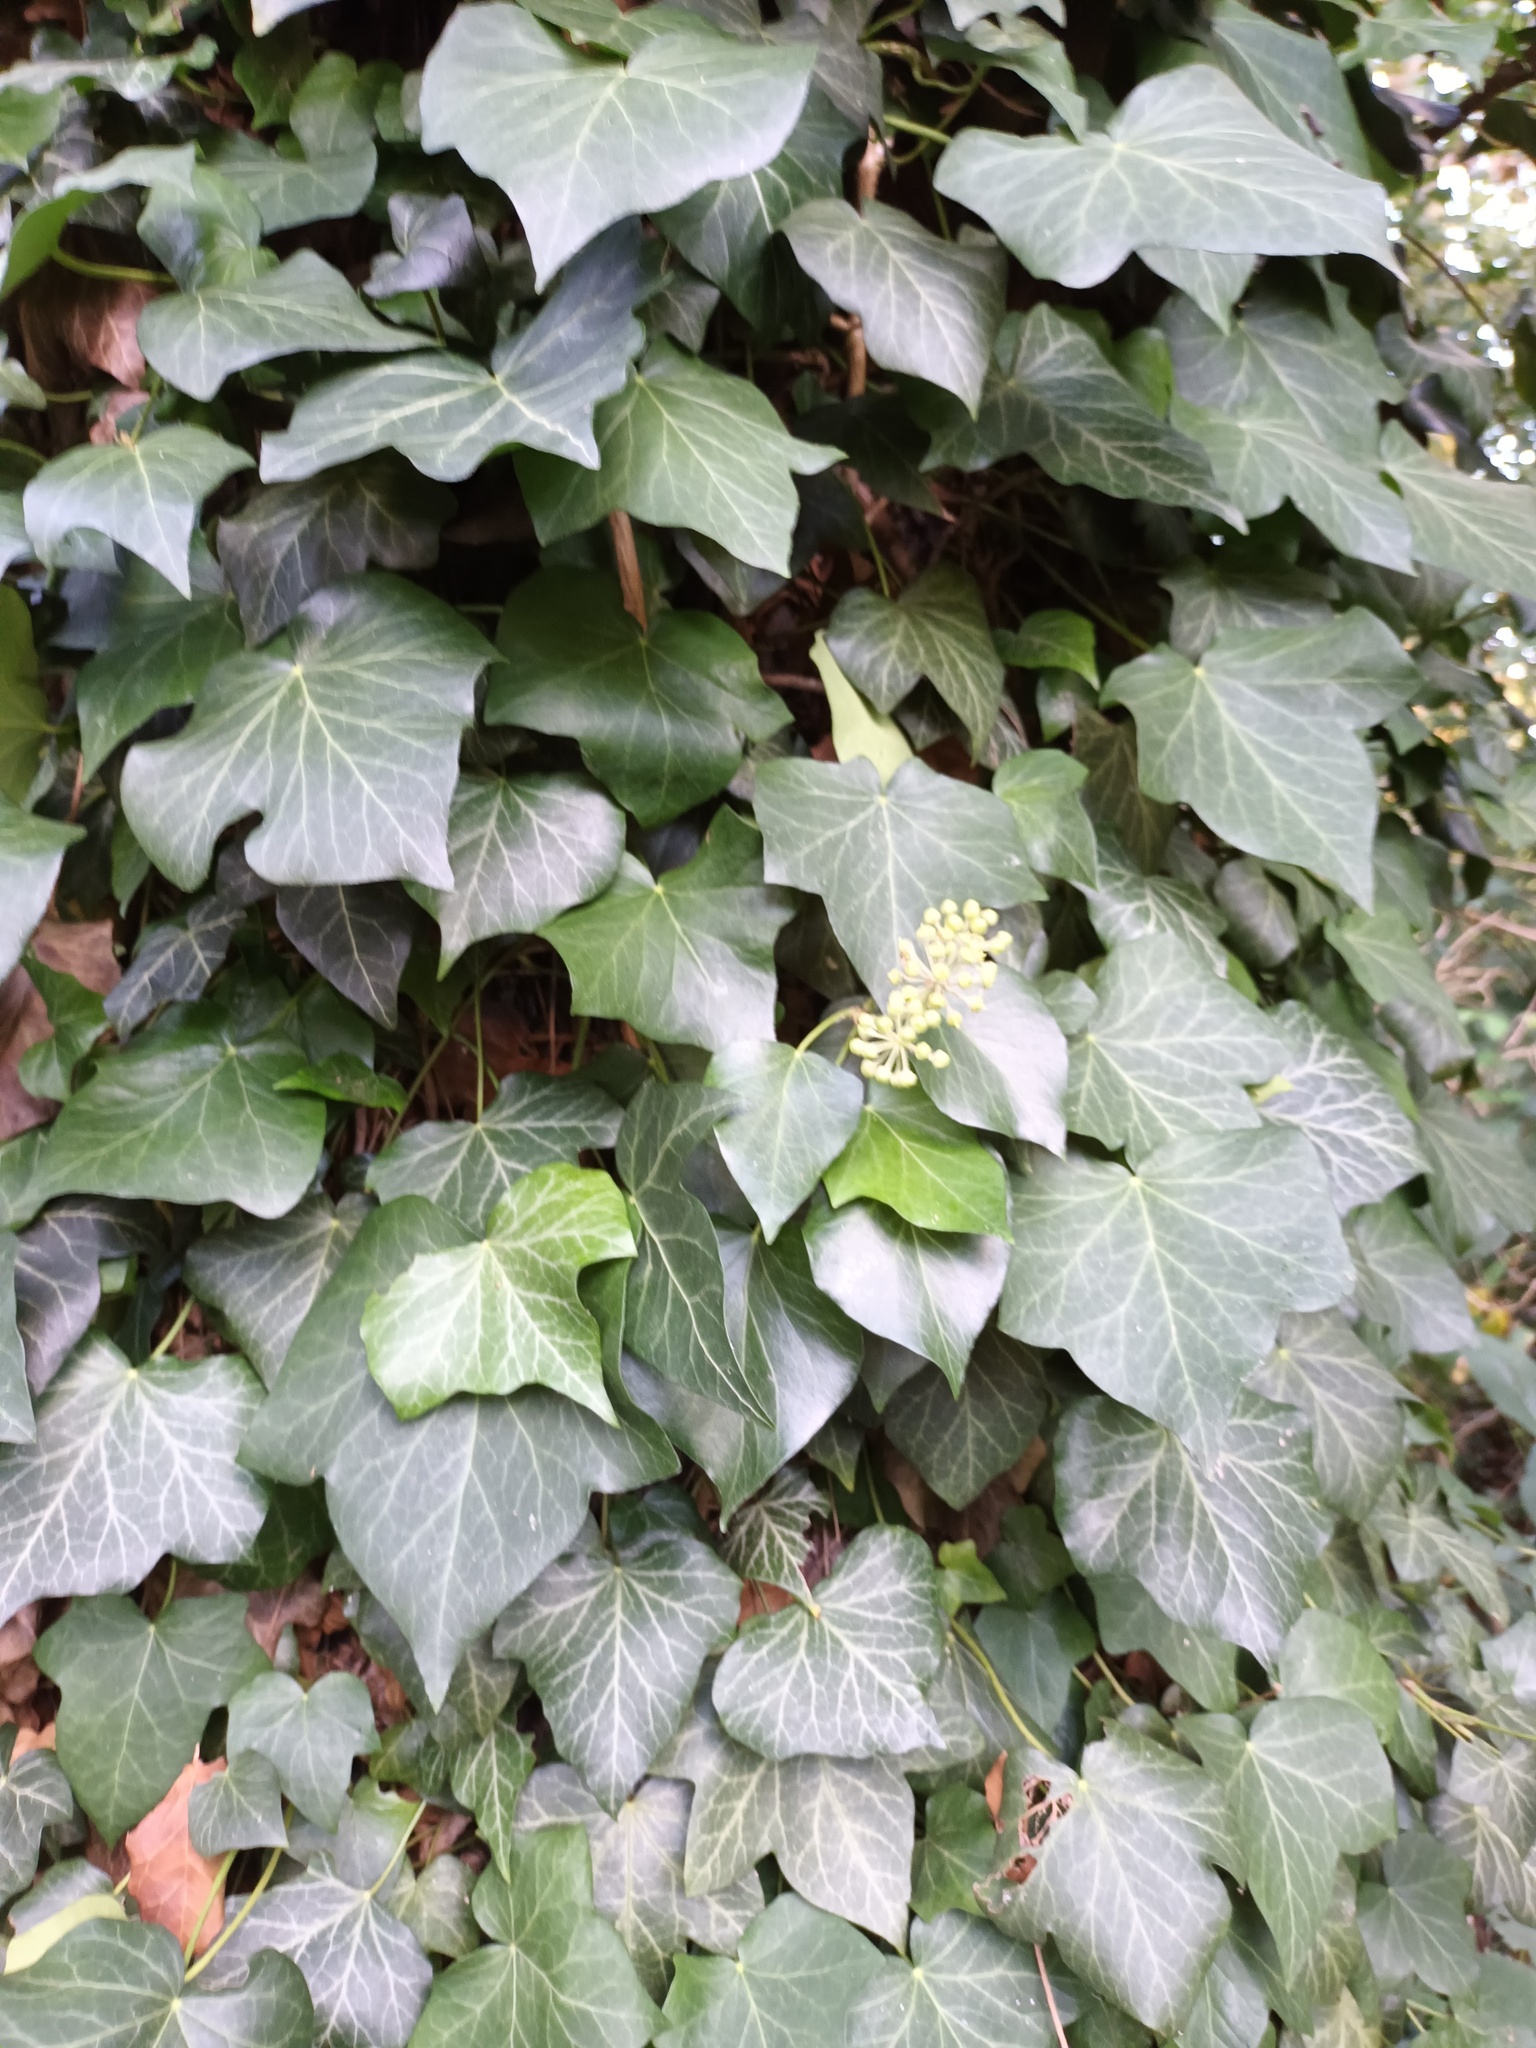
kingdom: Plantae
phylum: Tracheophyta
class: Magnoliopsida
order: Apiales
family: Araliaceae
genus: Hedera
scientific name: Hedera helix
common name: Ivy
